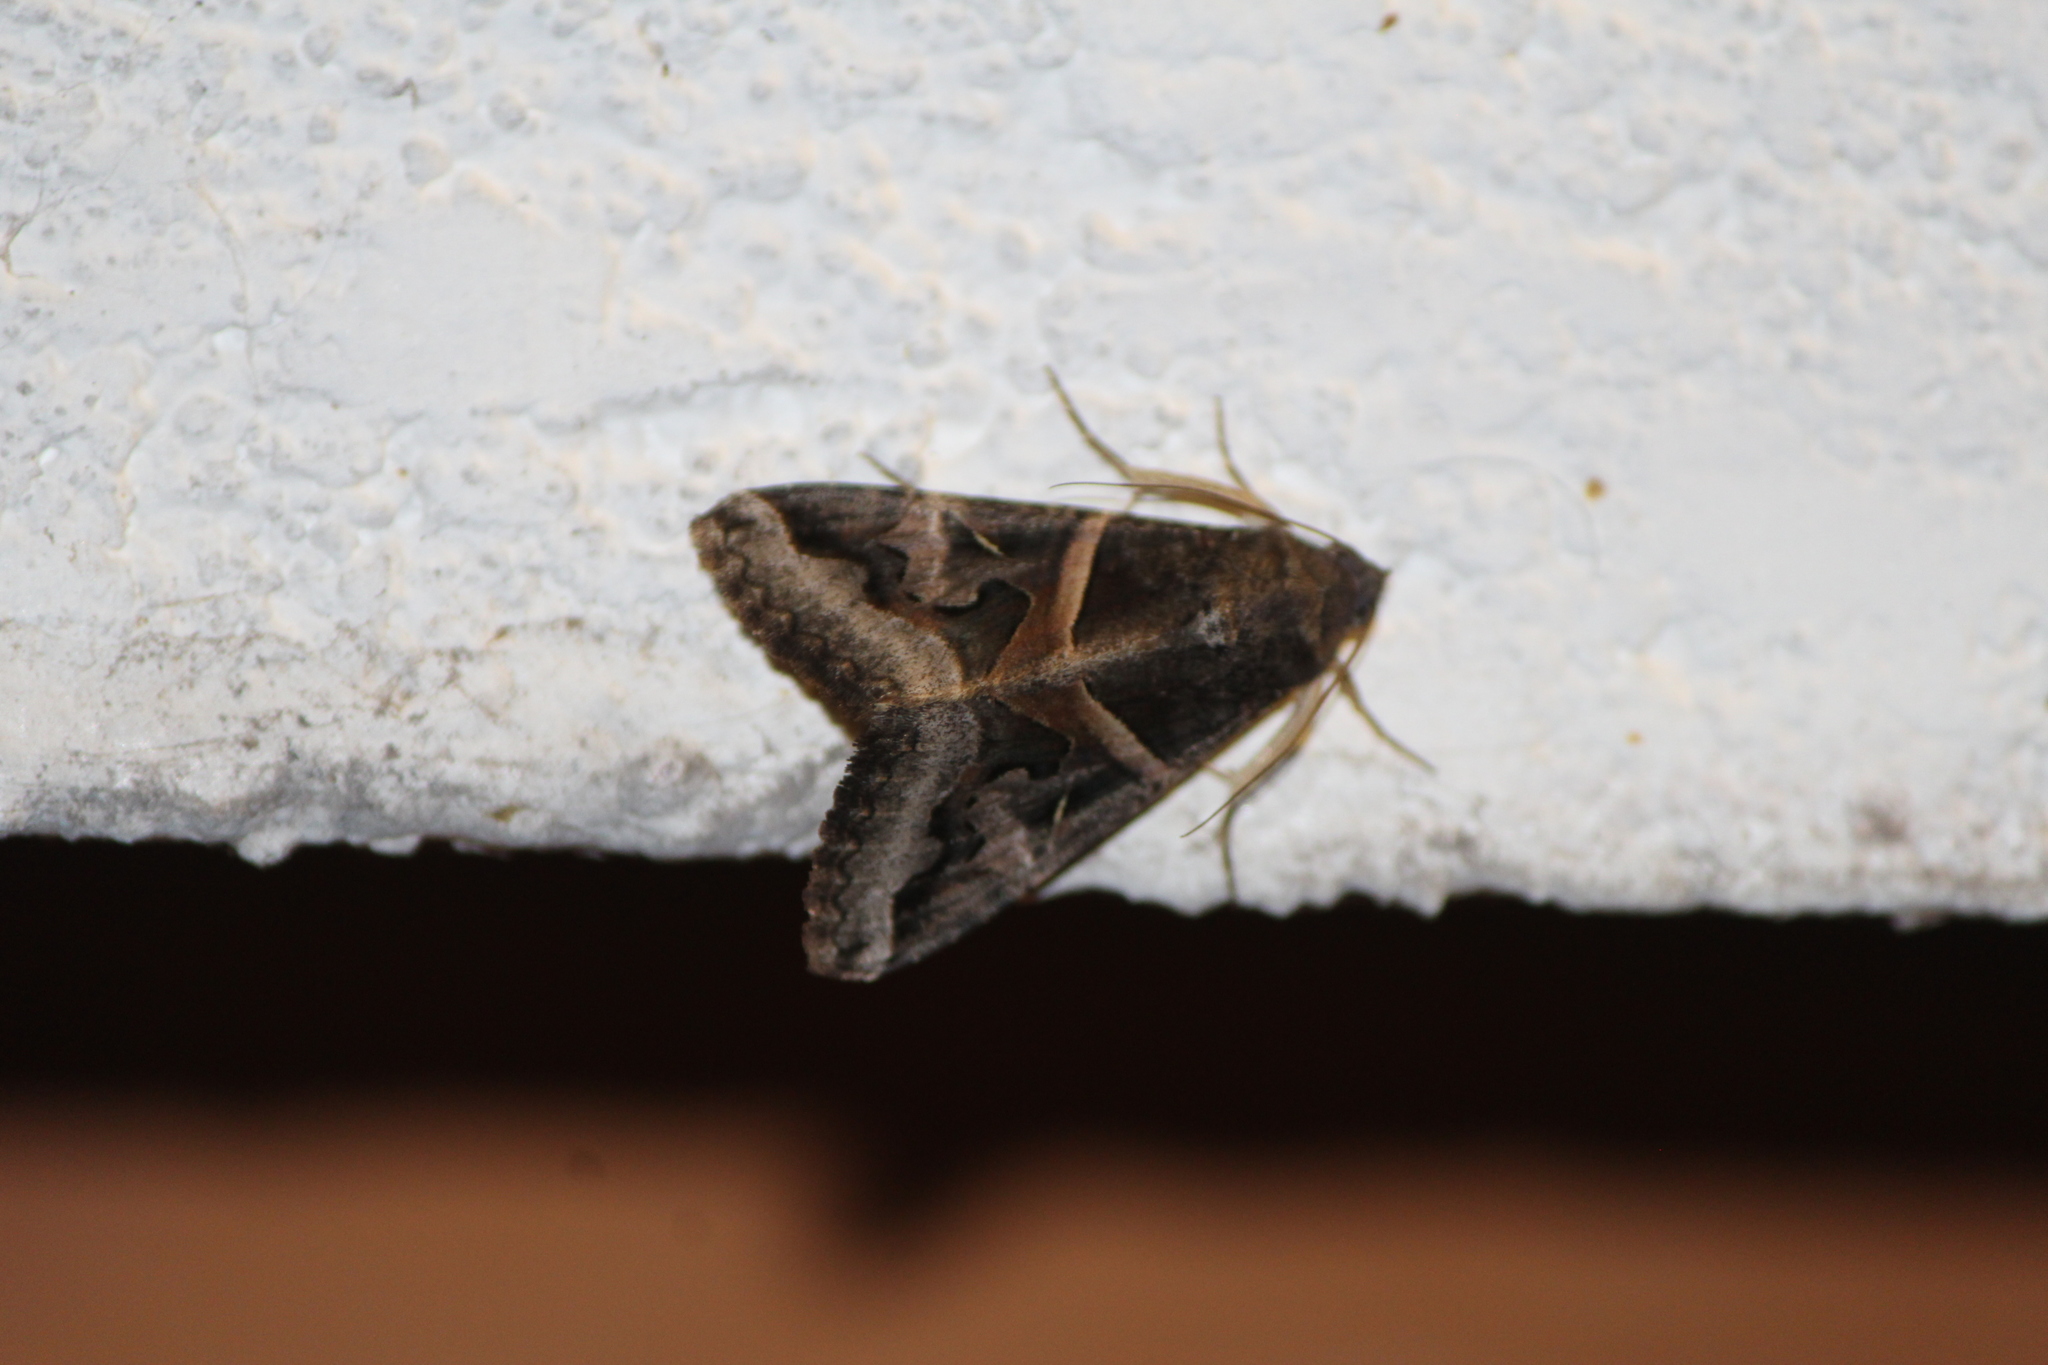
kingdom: Animalia
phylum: Arthropoda
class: Insecta
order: Lepidoptera
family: Erebidae
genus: Melipotis
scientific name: Melipotis indomita
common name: Moth
